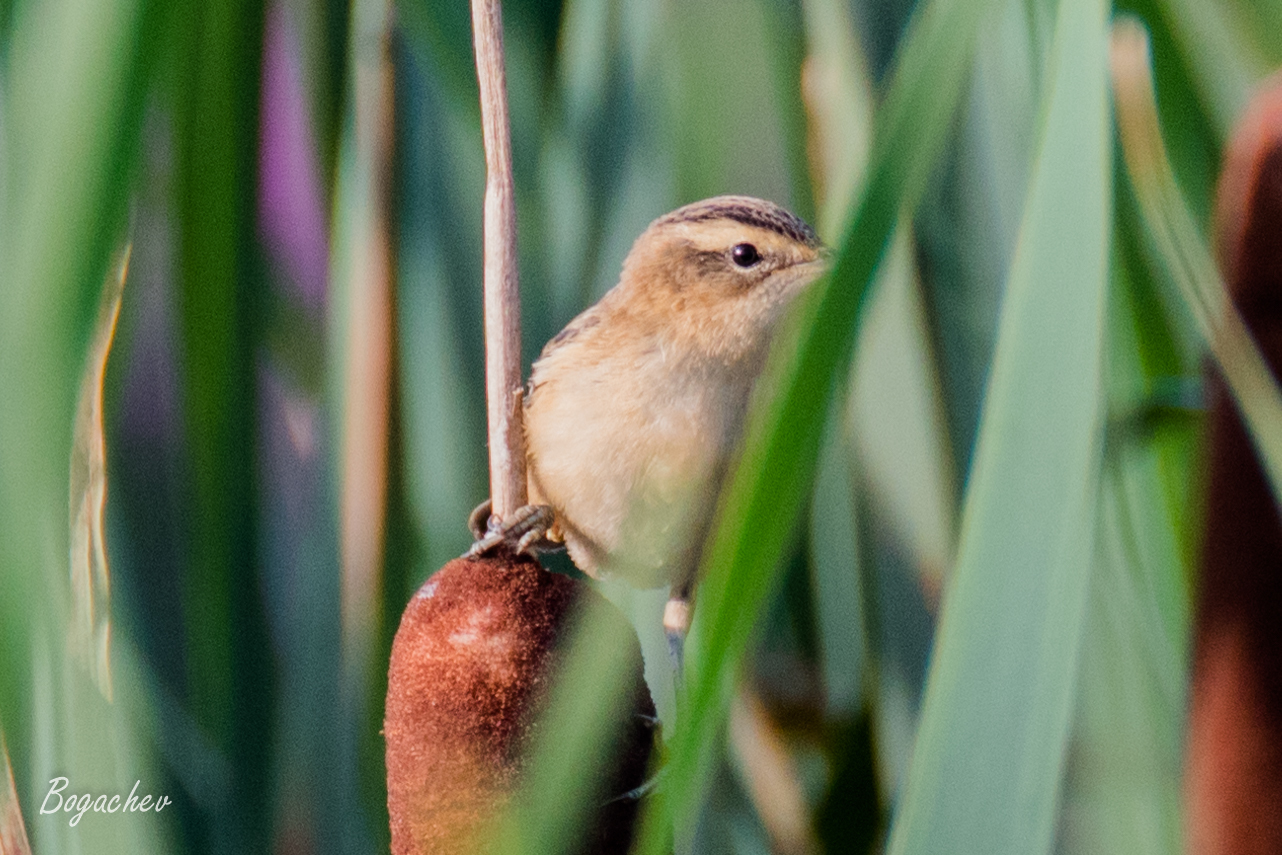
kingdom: Animalia
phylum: Chordata
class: Aves
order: Passeriformes
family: Acrocephalidae
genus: Acrocephalus
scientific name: Acrocephalus schoenobaenus
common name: Sedge warbler
